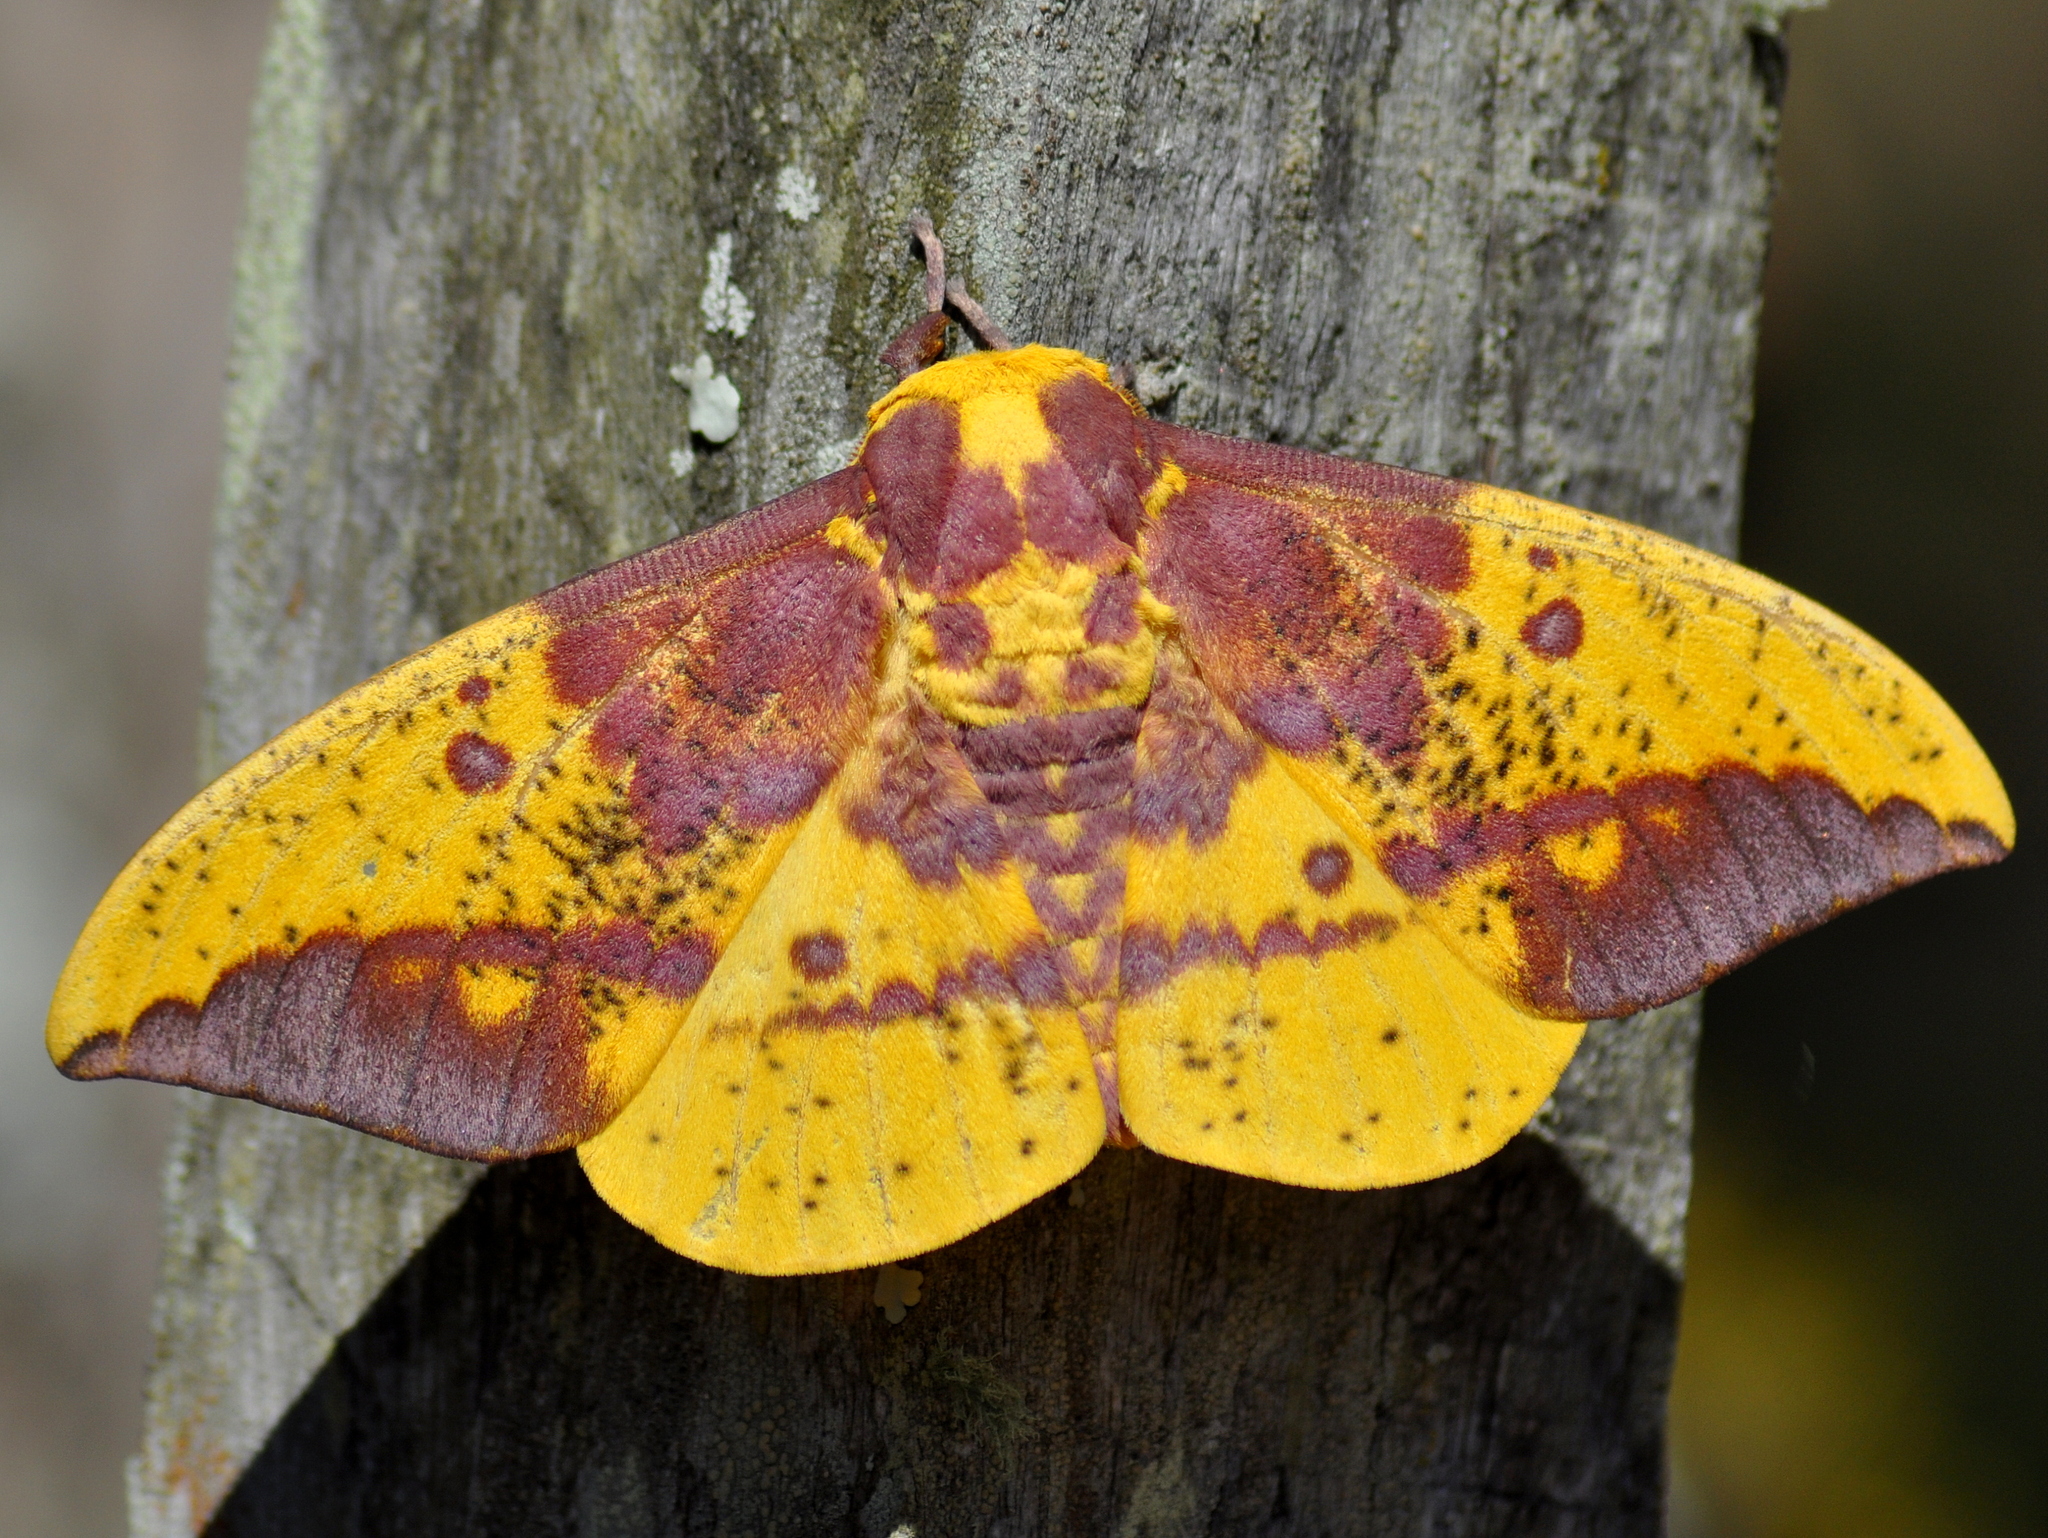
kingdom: Animalia
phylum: Arthropoda
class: Insecta
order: Lepidoptera
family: Saturniidae
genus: Eacles
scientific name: Eacles imperialis
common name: Imperial moth
